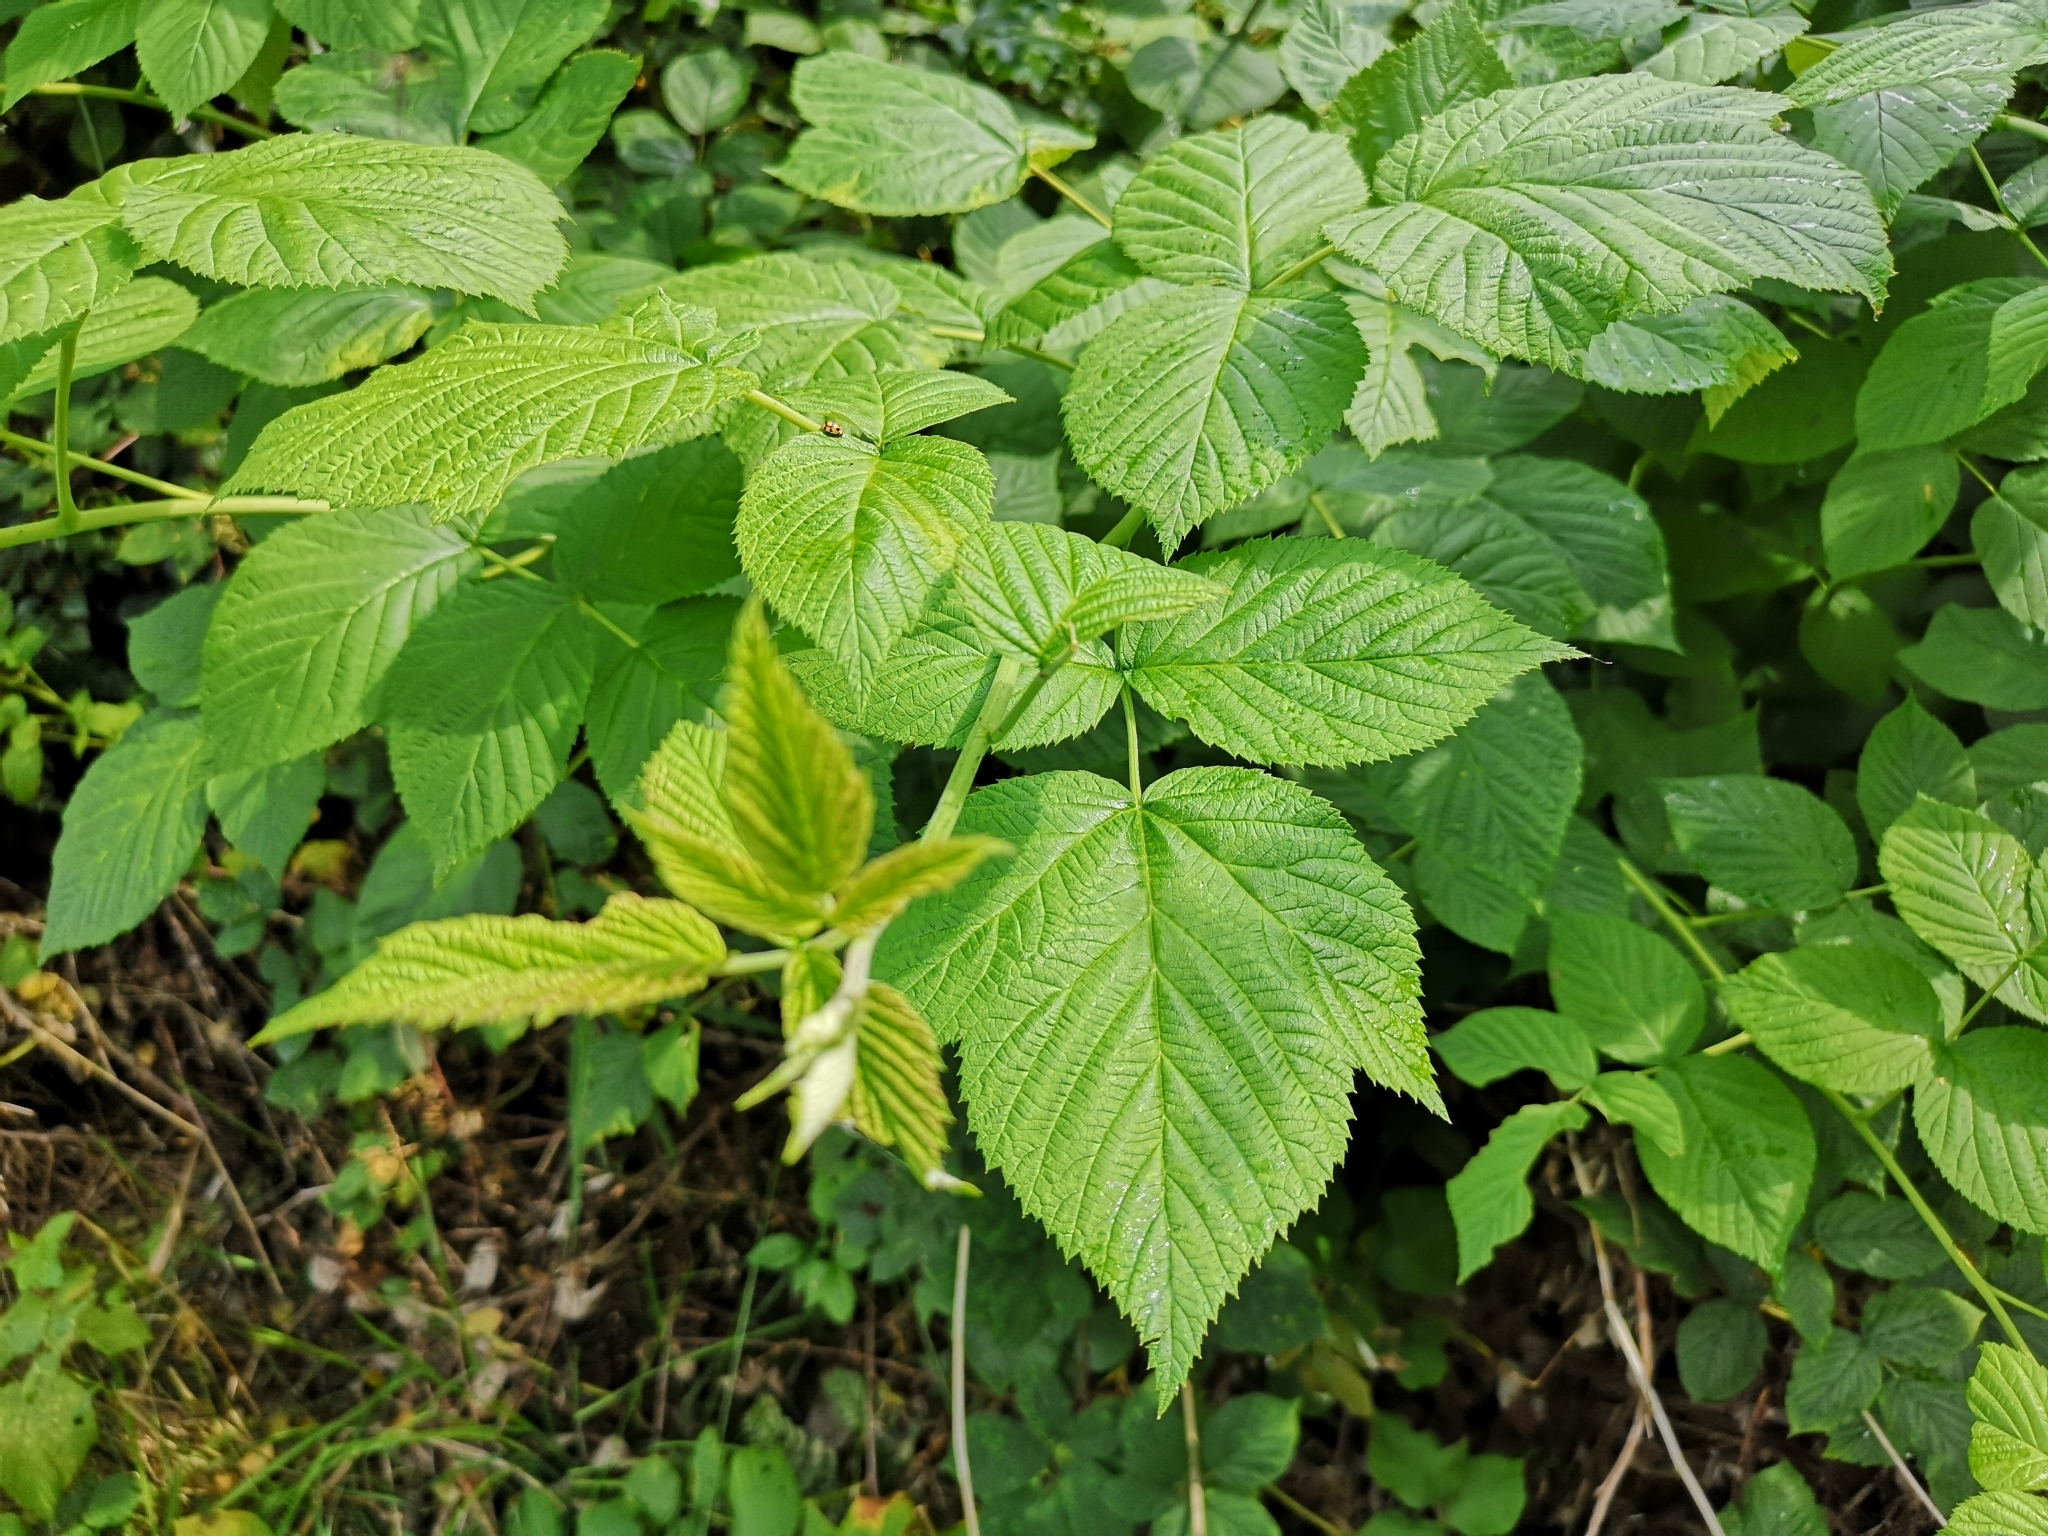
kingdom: Plantae
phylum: Tracheophyta
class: Magnoliopsida
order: Rosales
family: Rosaceae
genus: Rubus
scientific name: Rubus idaeus
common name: Raspberry
